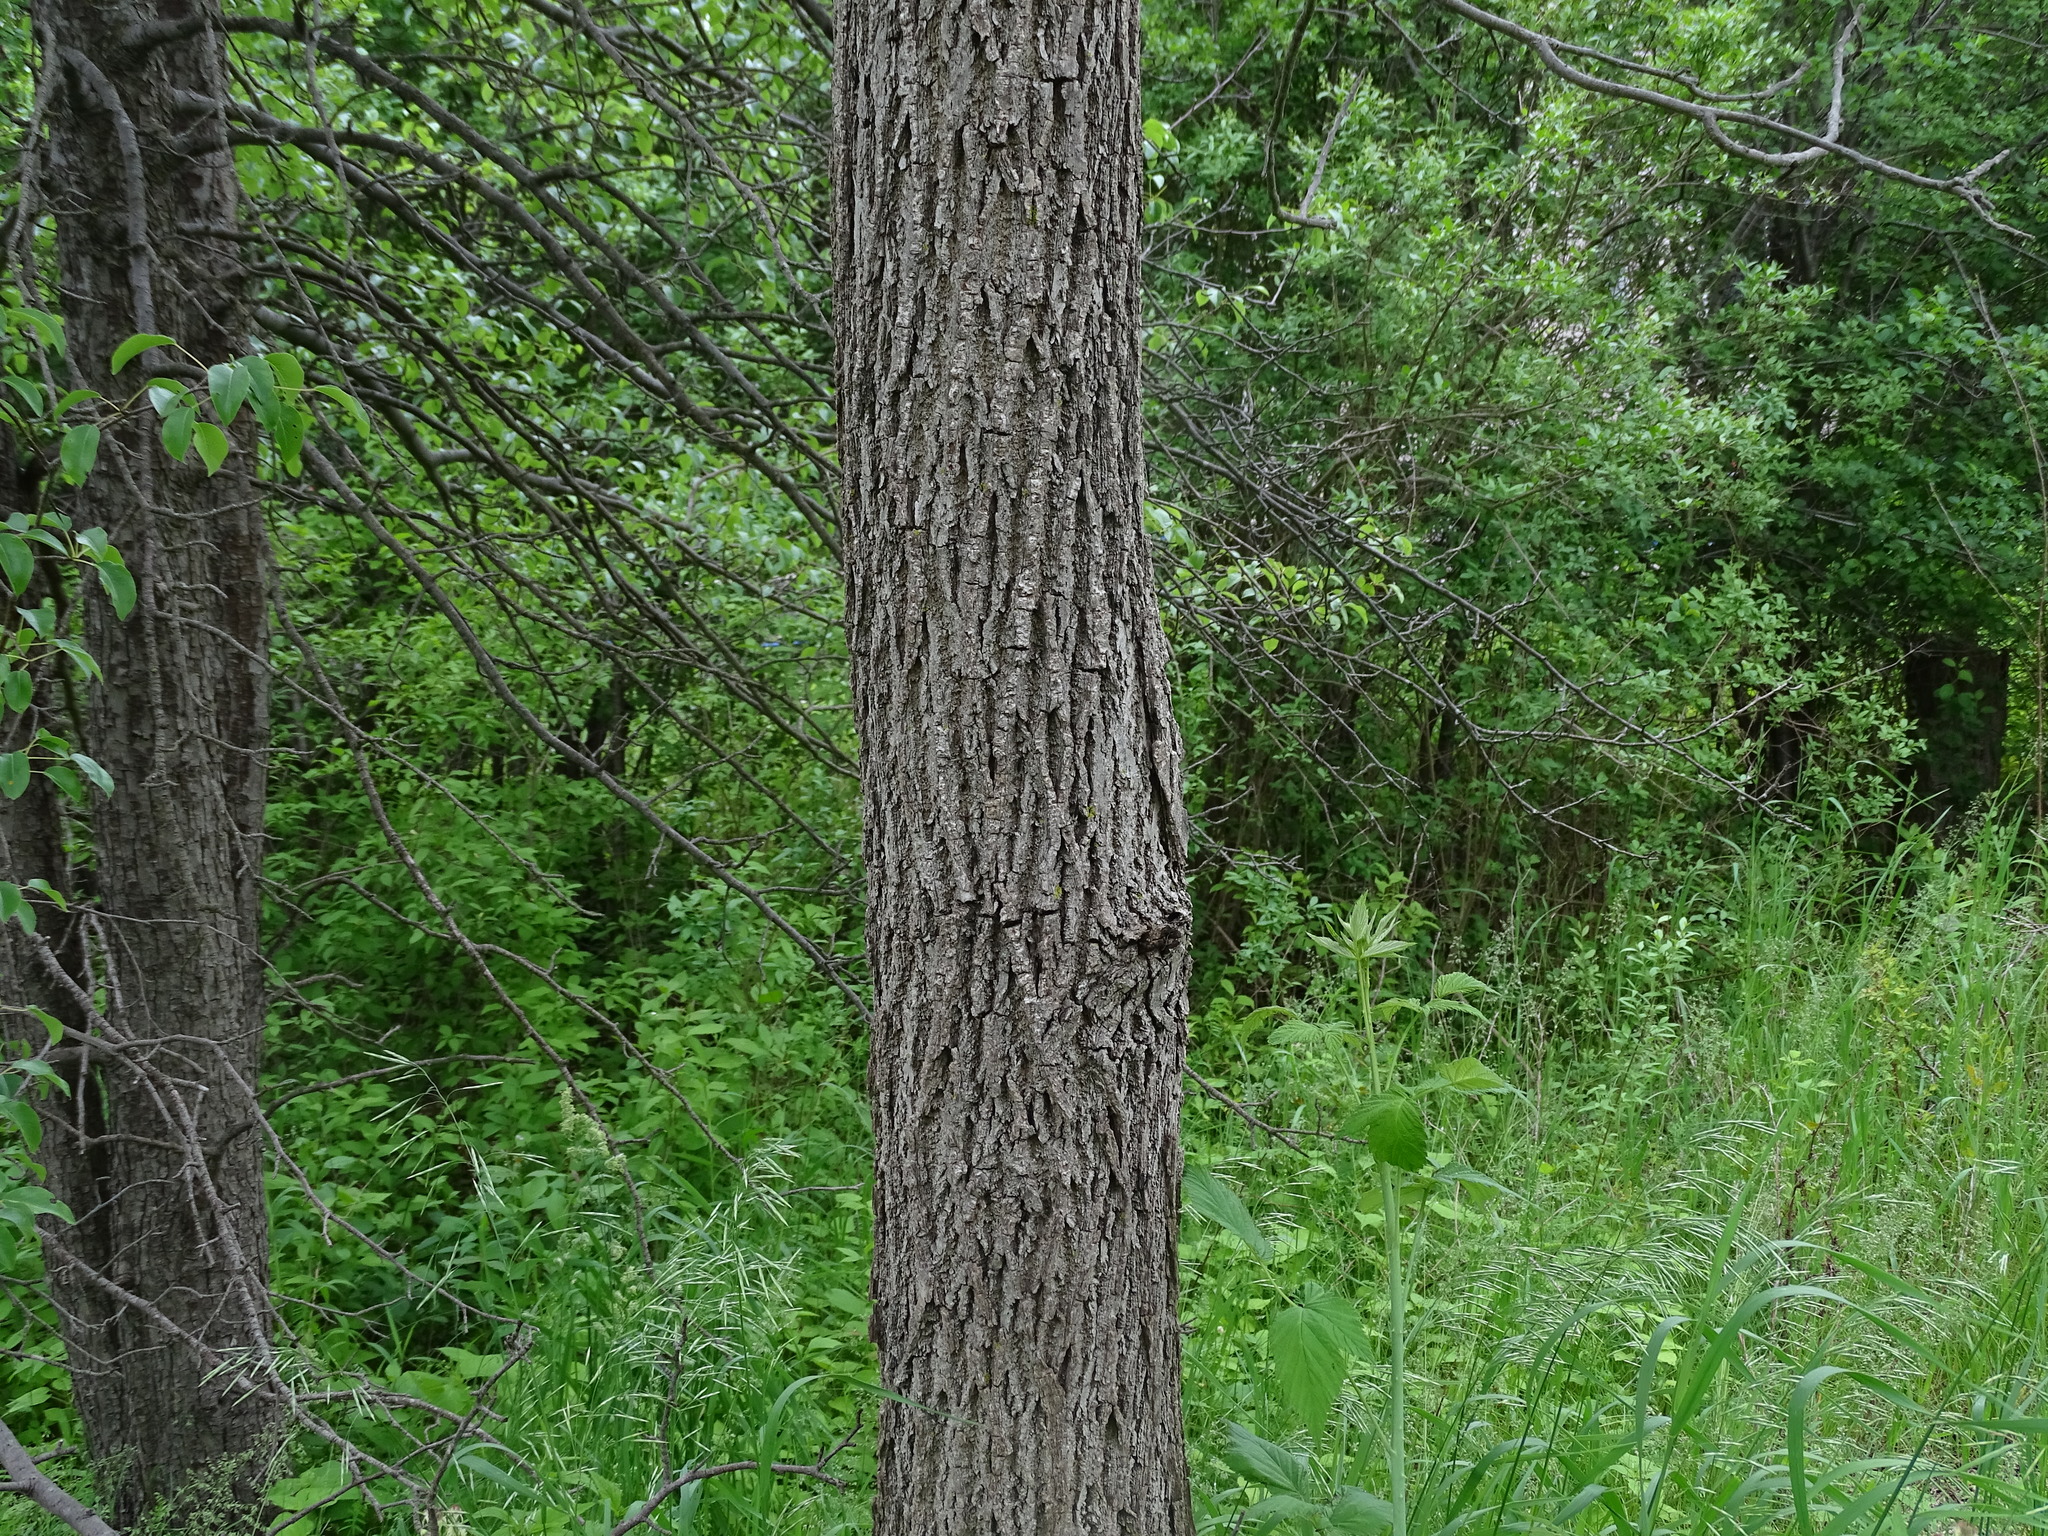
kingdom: Plantae
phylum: Tracheophyta
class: Magnoliopsida
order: Fagales
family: Juglandaceae
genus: Juglans
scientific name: Juglans nigra
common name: Black walnut
